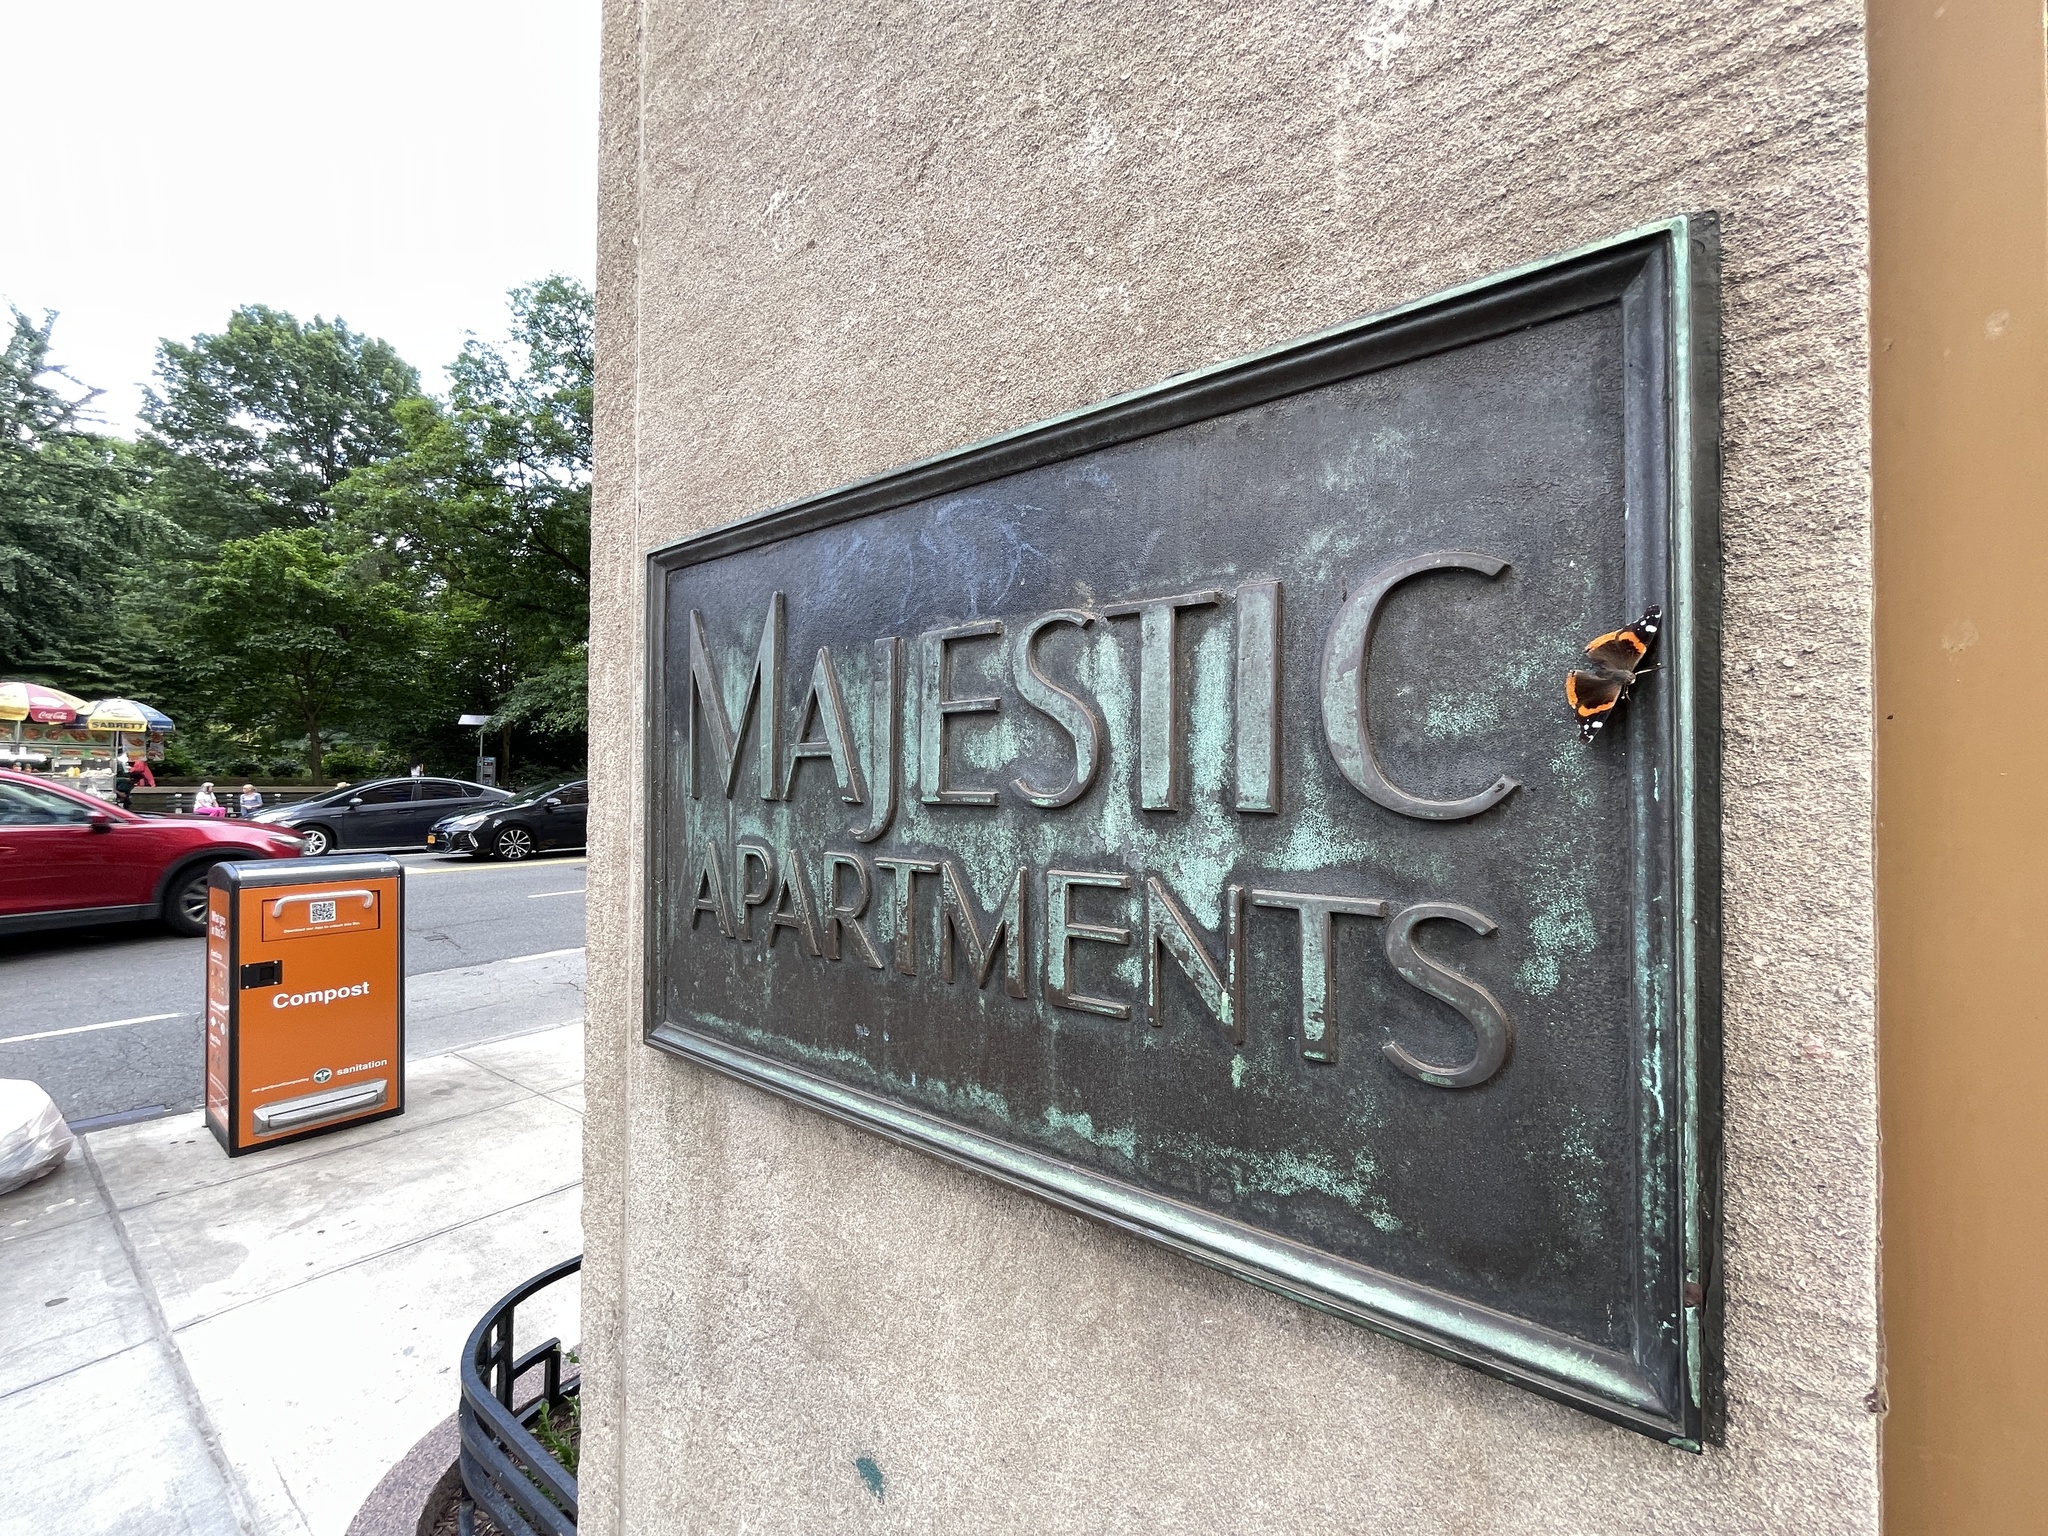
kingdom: Animalia
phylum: Arthropoda
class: Insecta
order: Lepidoptera
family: Nymphalidae
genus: Vanessa
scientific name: Vanessa atalanta
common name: Red admiral
